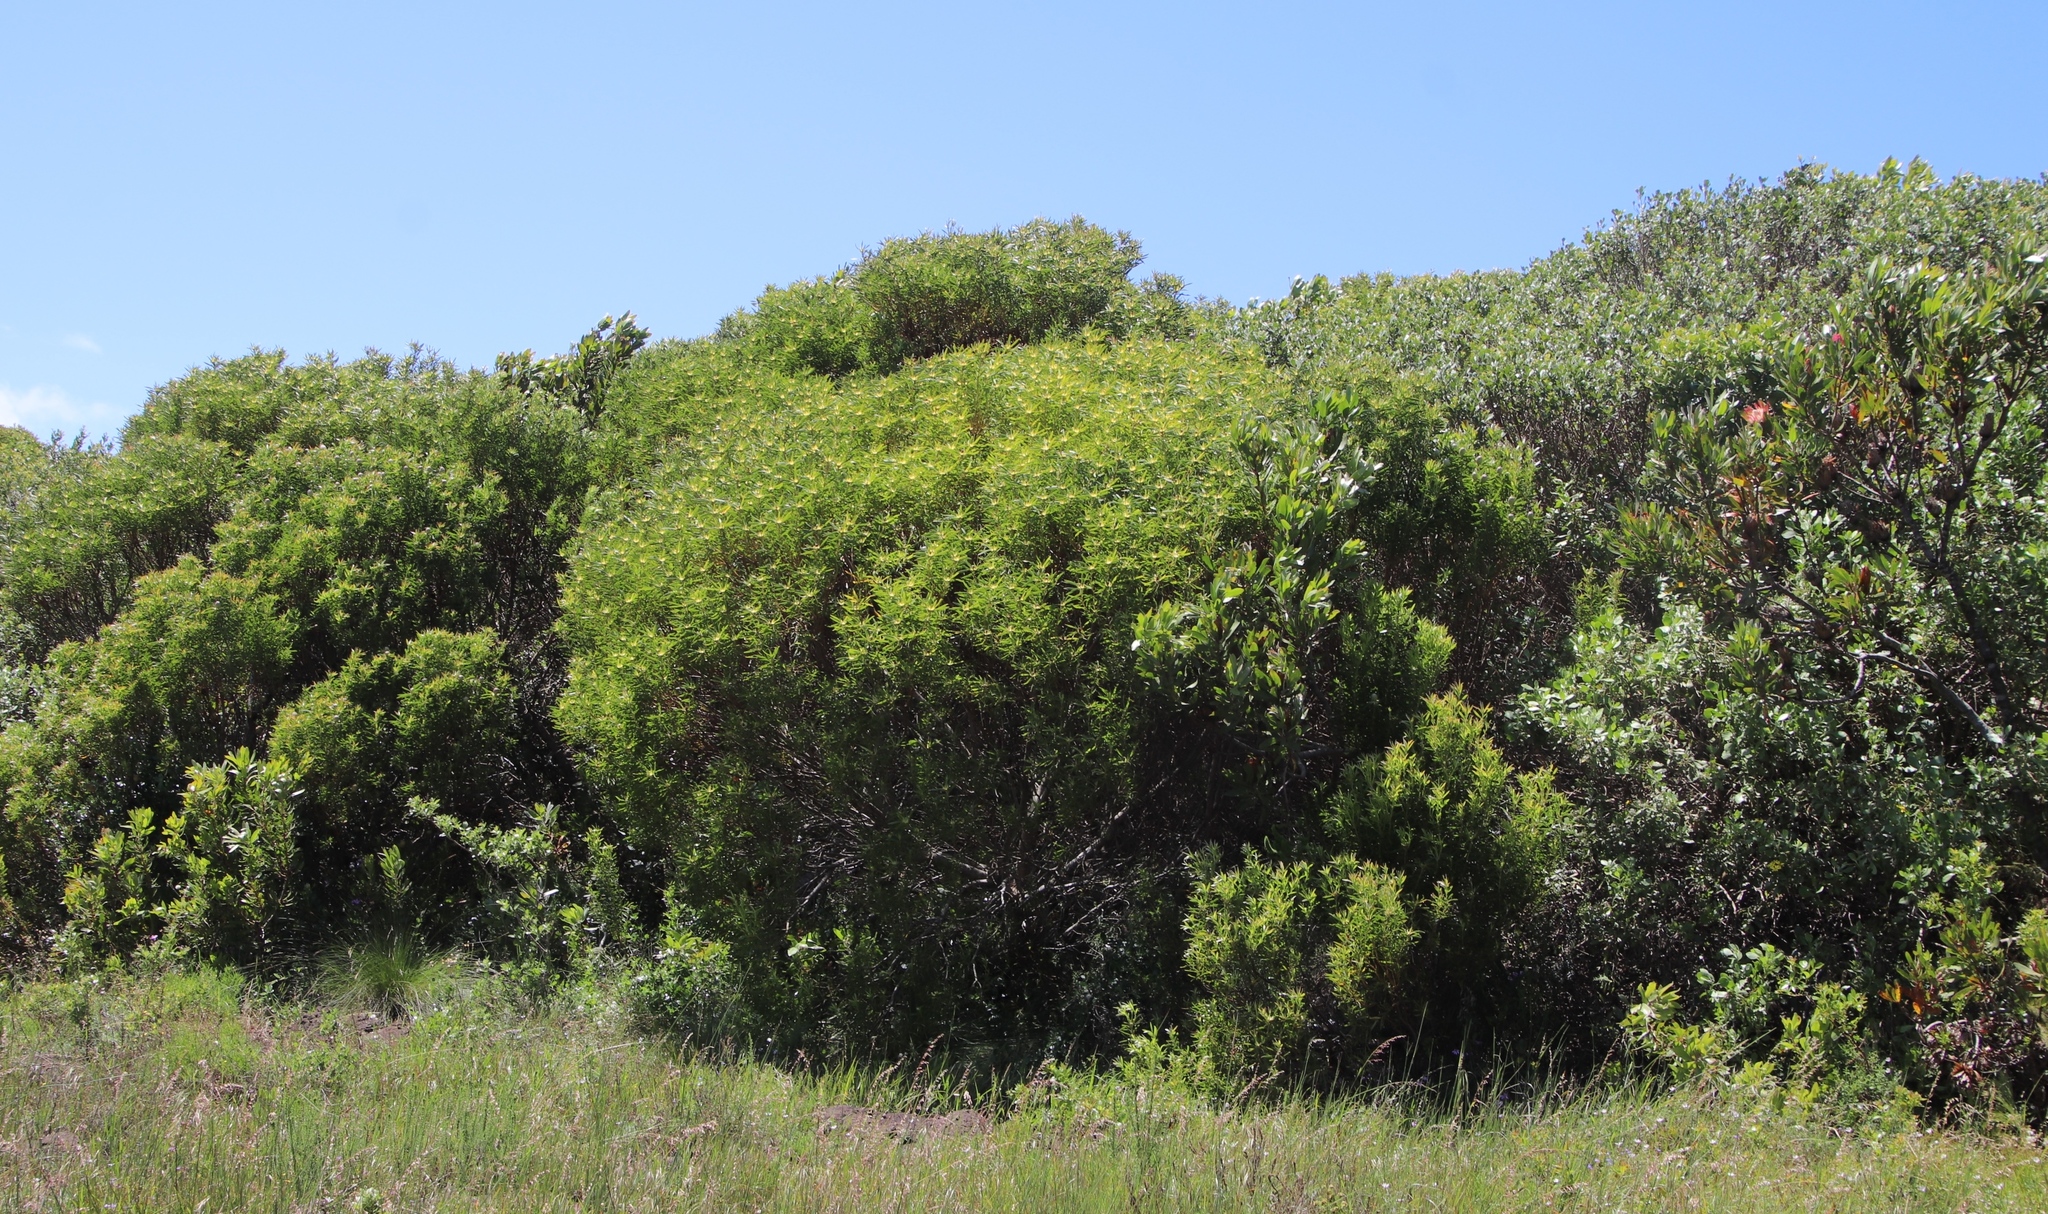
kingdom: Plantae
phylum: Tracheophyta
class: Magnoliopsida
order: Proteales
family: Proteaceae
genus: Leucadendron
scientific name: Leucadendron coniferum
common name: Dune conebush
